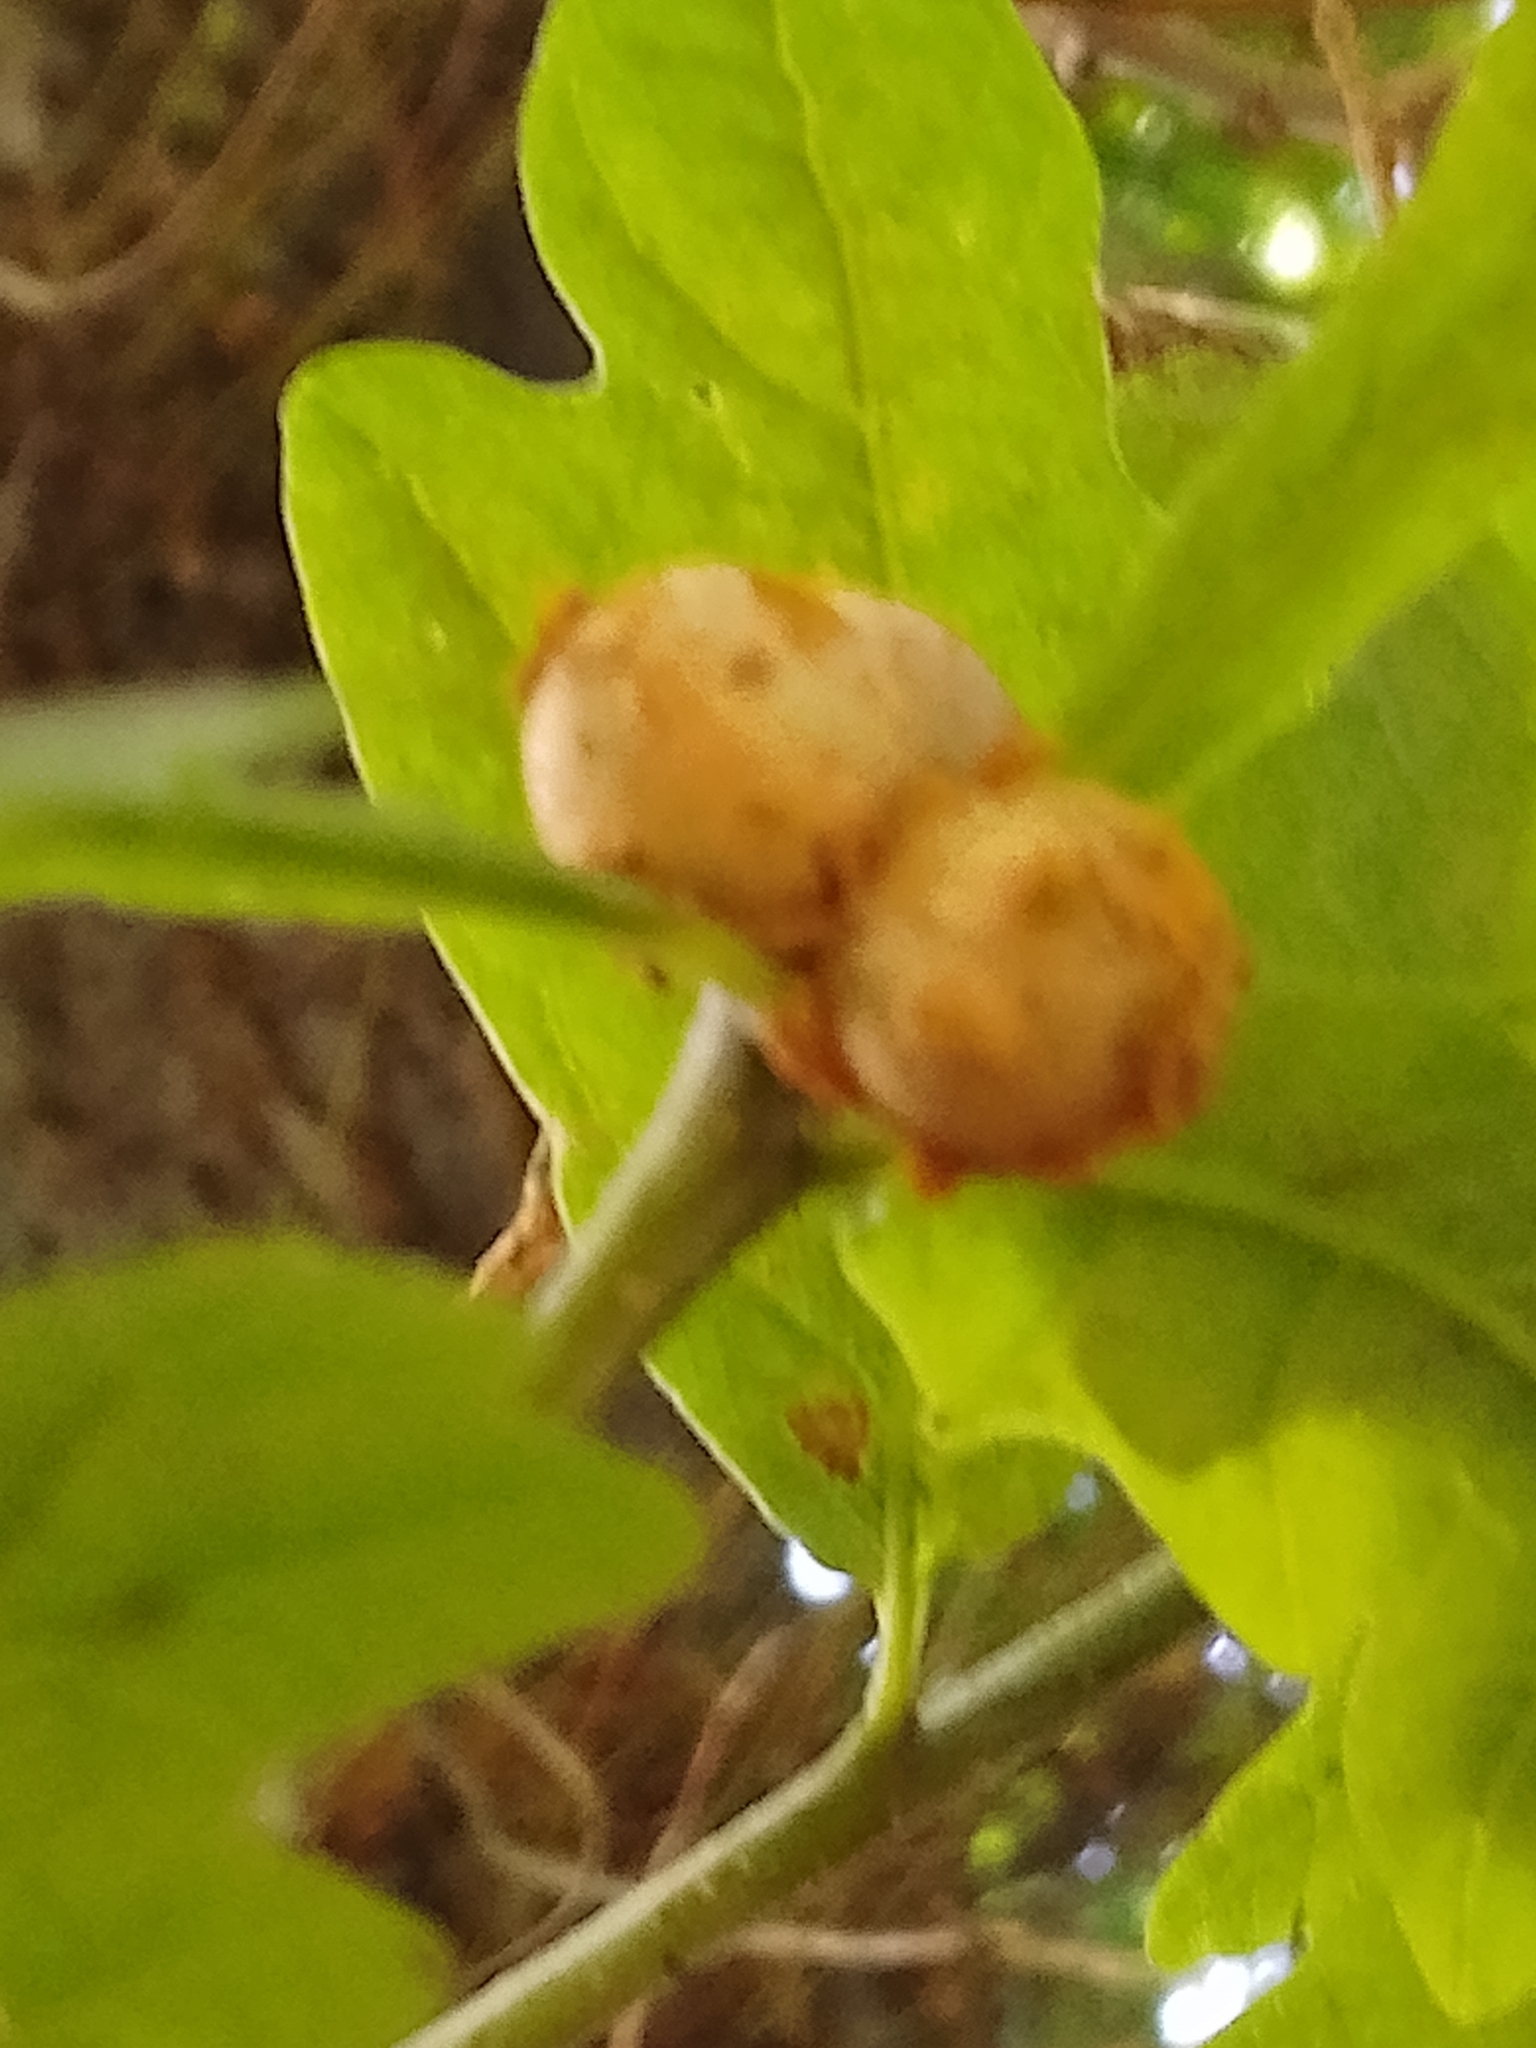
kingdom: Animalia
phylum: Arthropoda
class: Insecta
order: Hymenoptera
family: Cynipidae
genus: Andricus
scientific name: Andricus lignicolus
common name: Cola-nut gall
